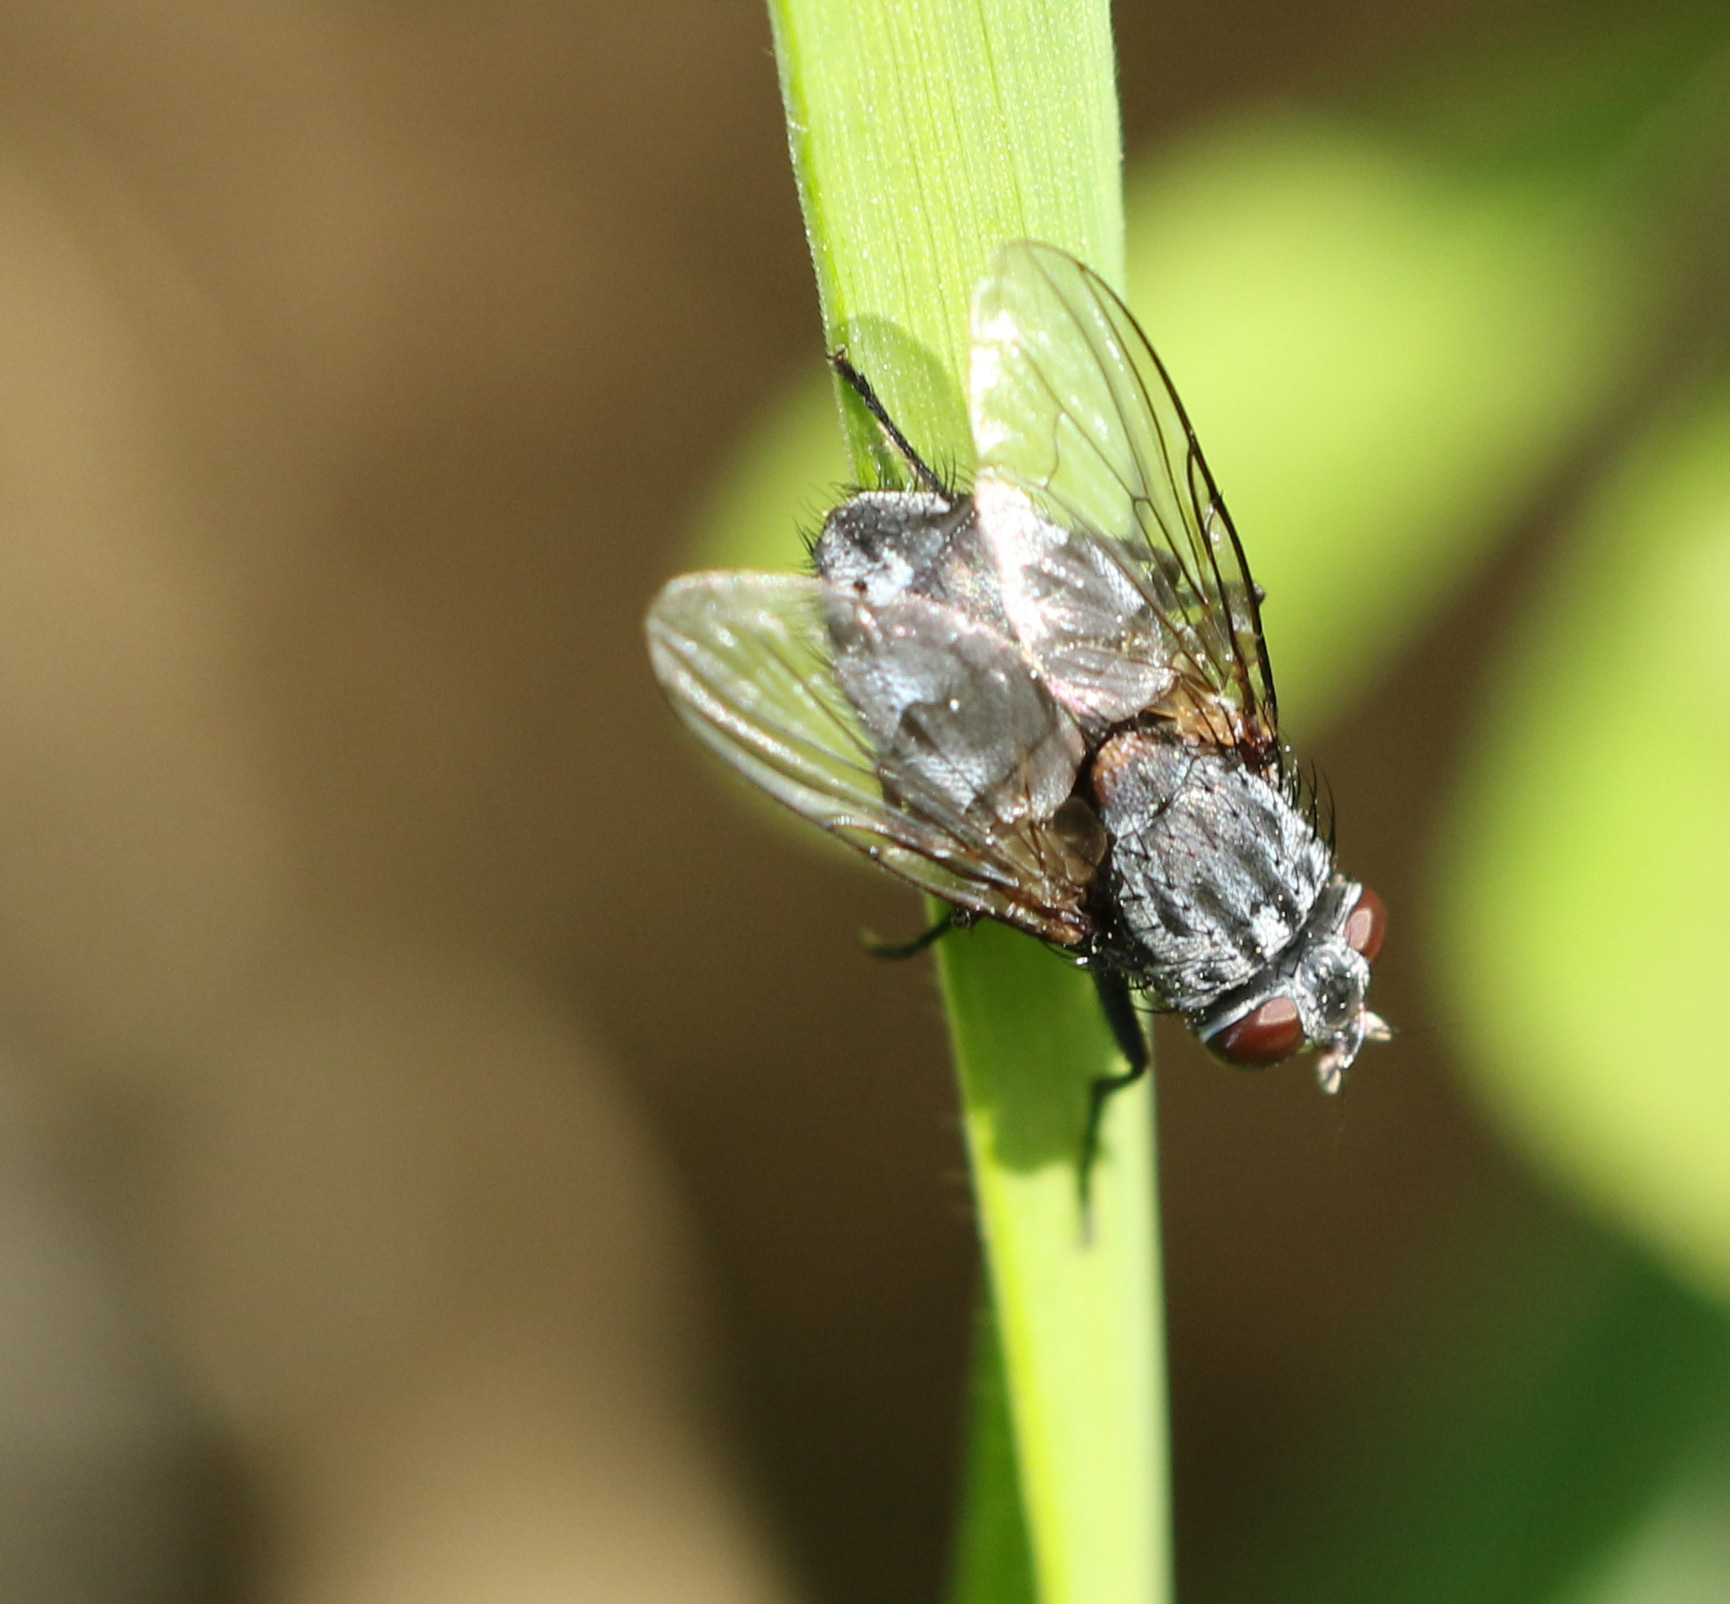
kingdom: Animalia
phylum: Arthropoda
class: Insecta
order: Diptera
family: Muscidae
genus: Muscina
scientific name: Muscina prolapsa
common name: Muscoid fly
